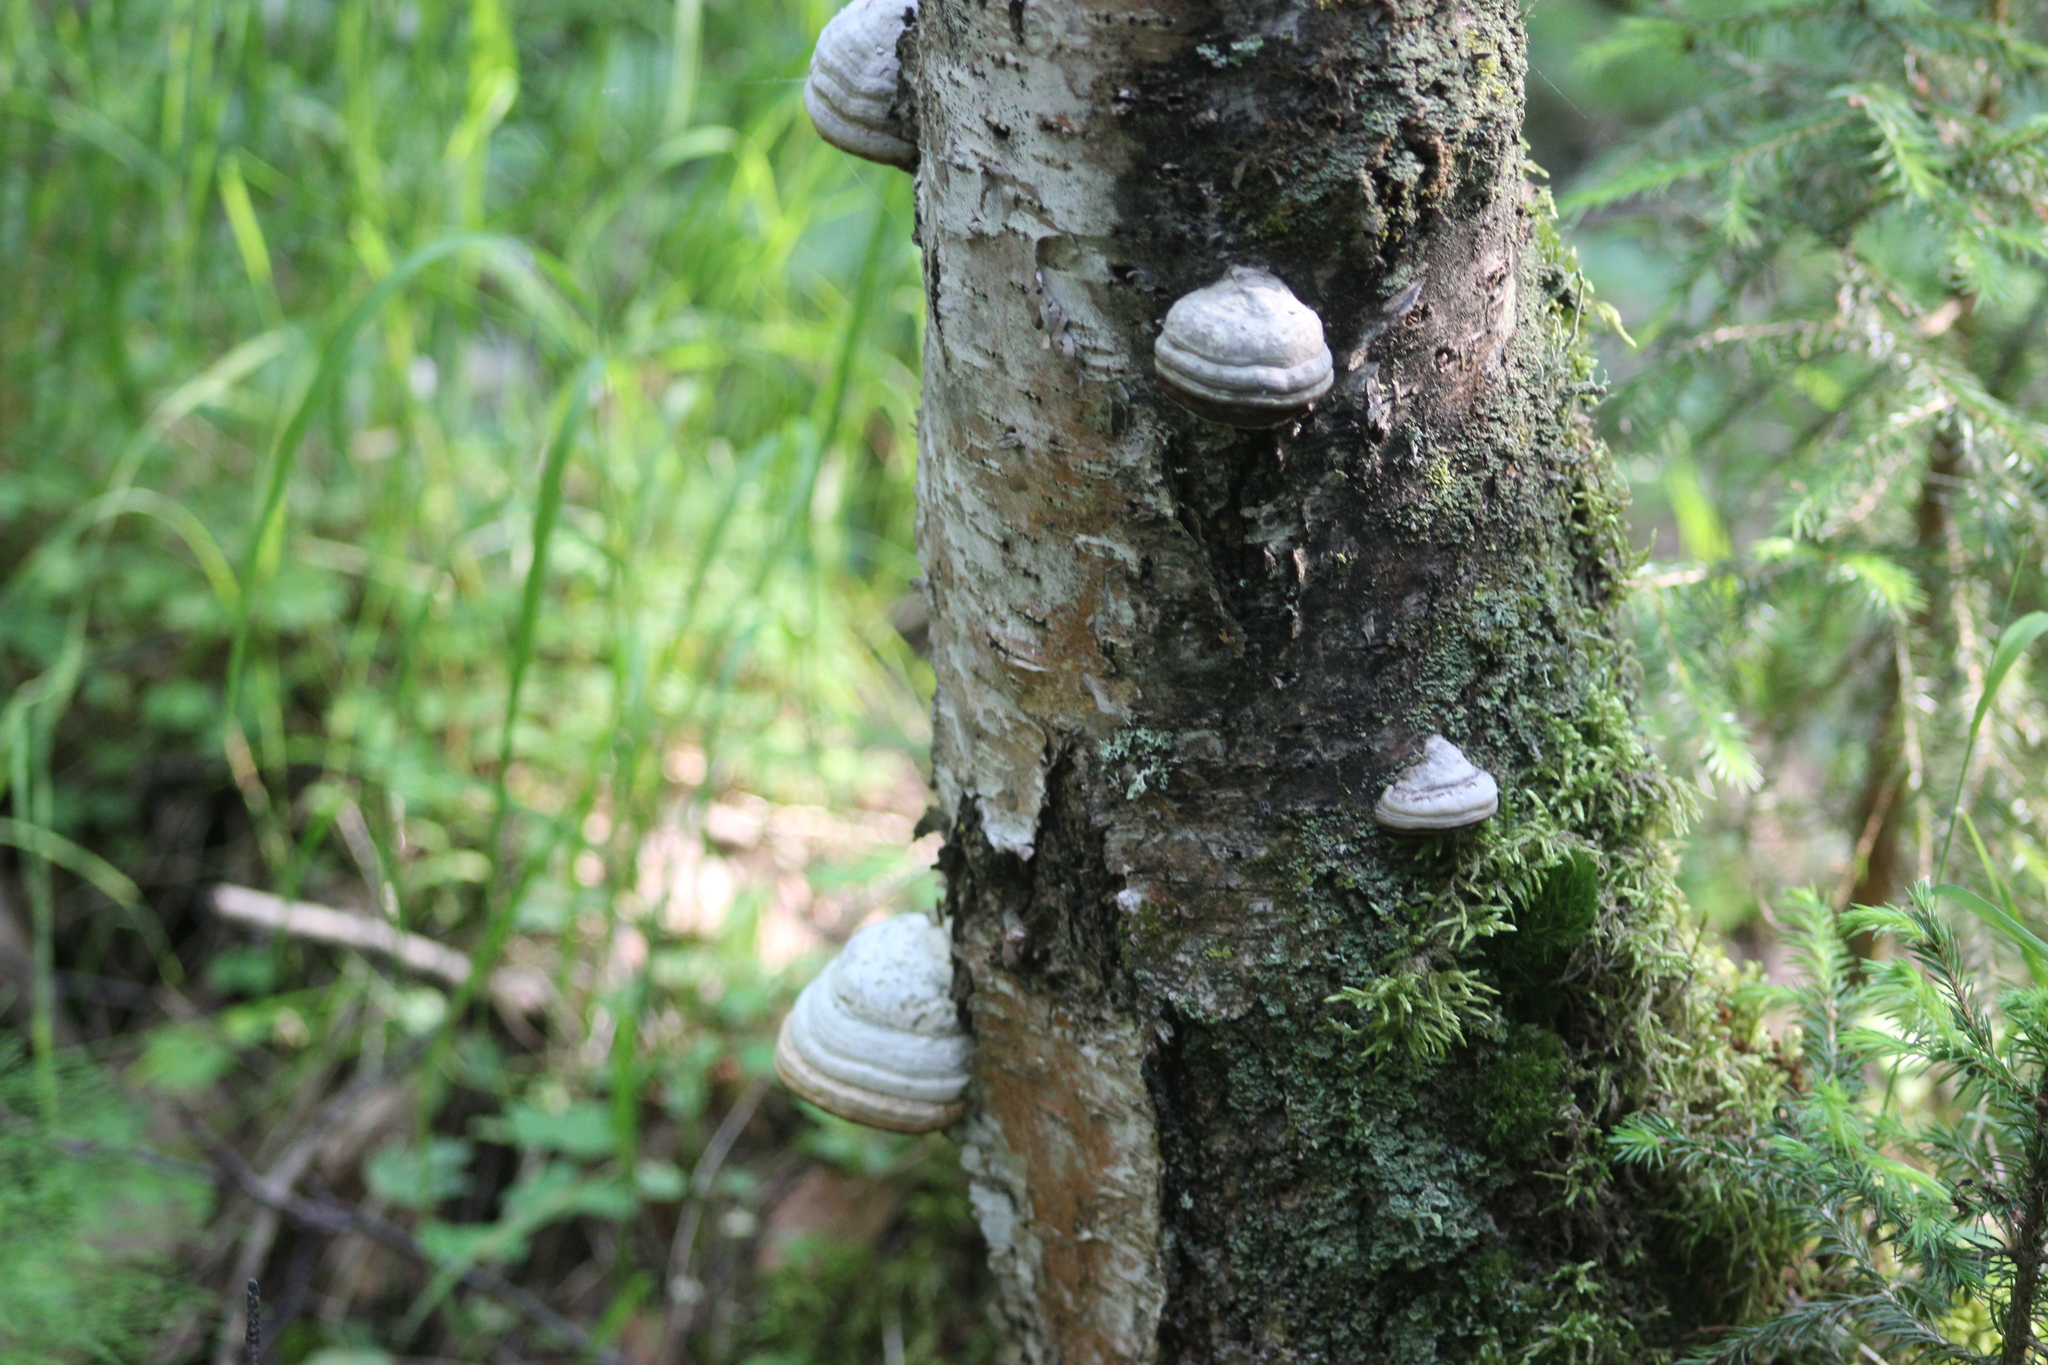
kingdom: Fungi
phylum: Basidiomycota
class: Agaricomycetes
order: Polyporales
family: Polyporaceae
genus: Fomes
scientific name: Fomes fomentarius
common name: Hoof fungus
